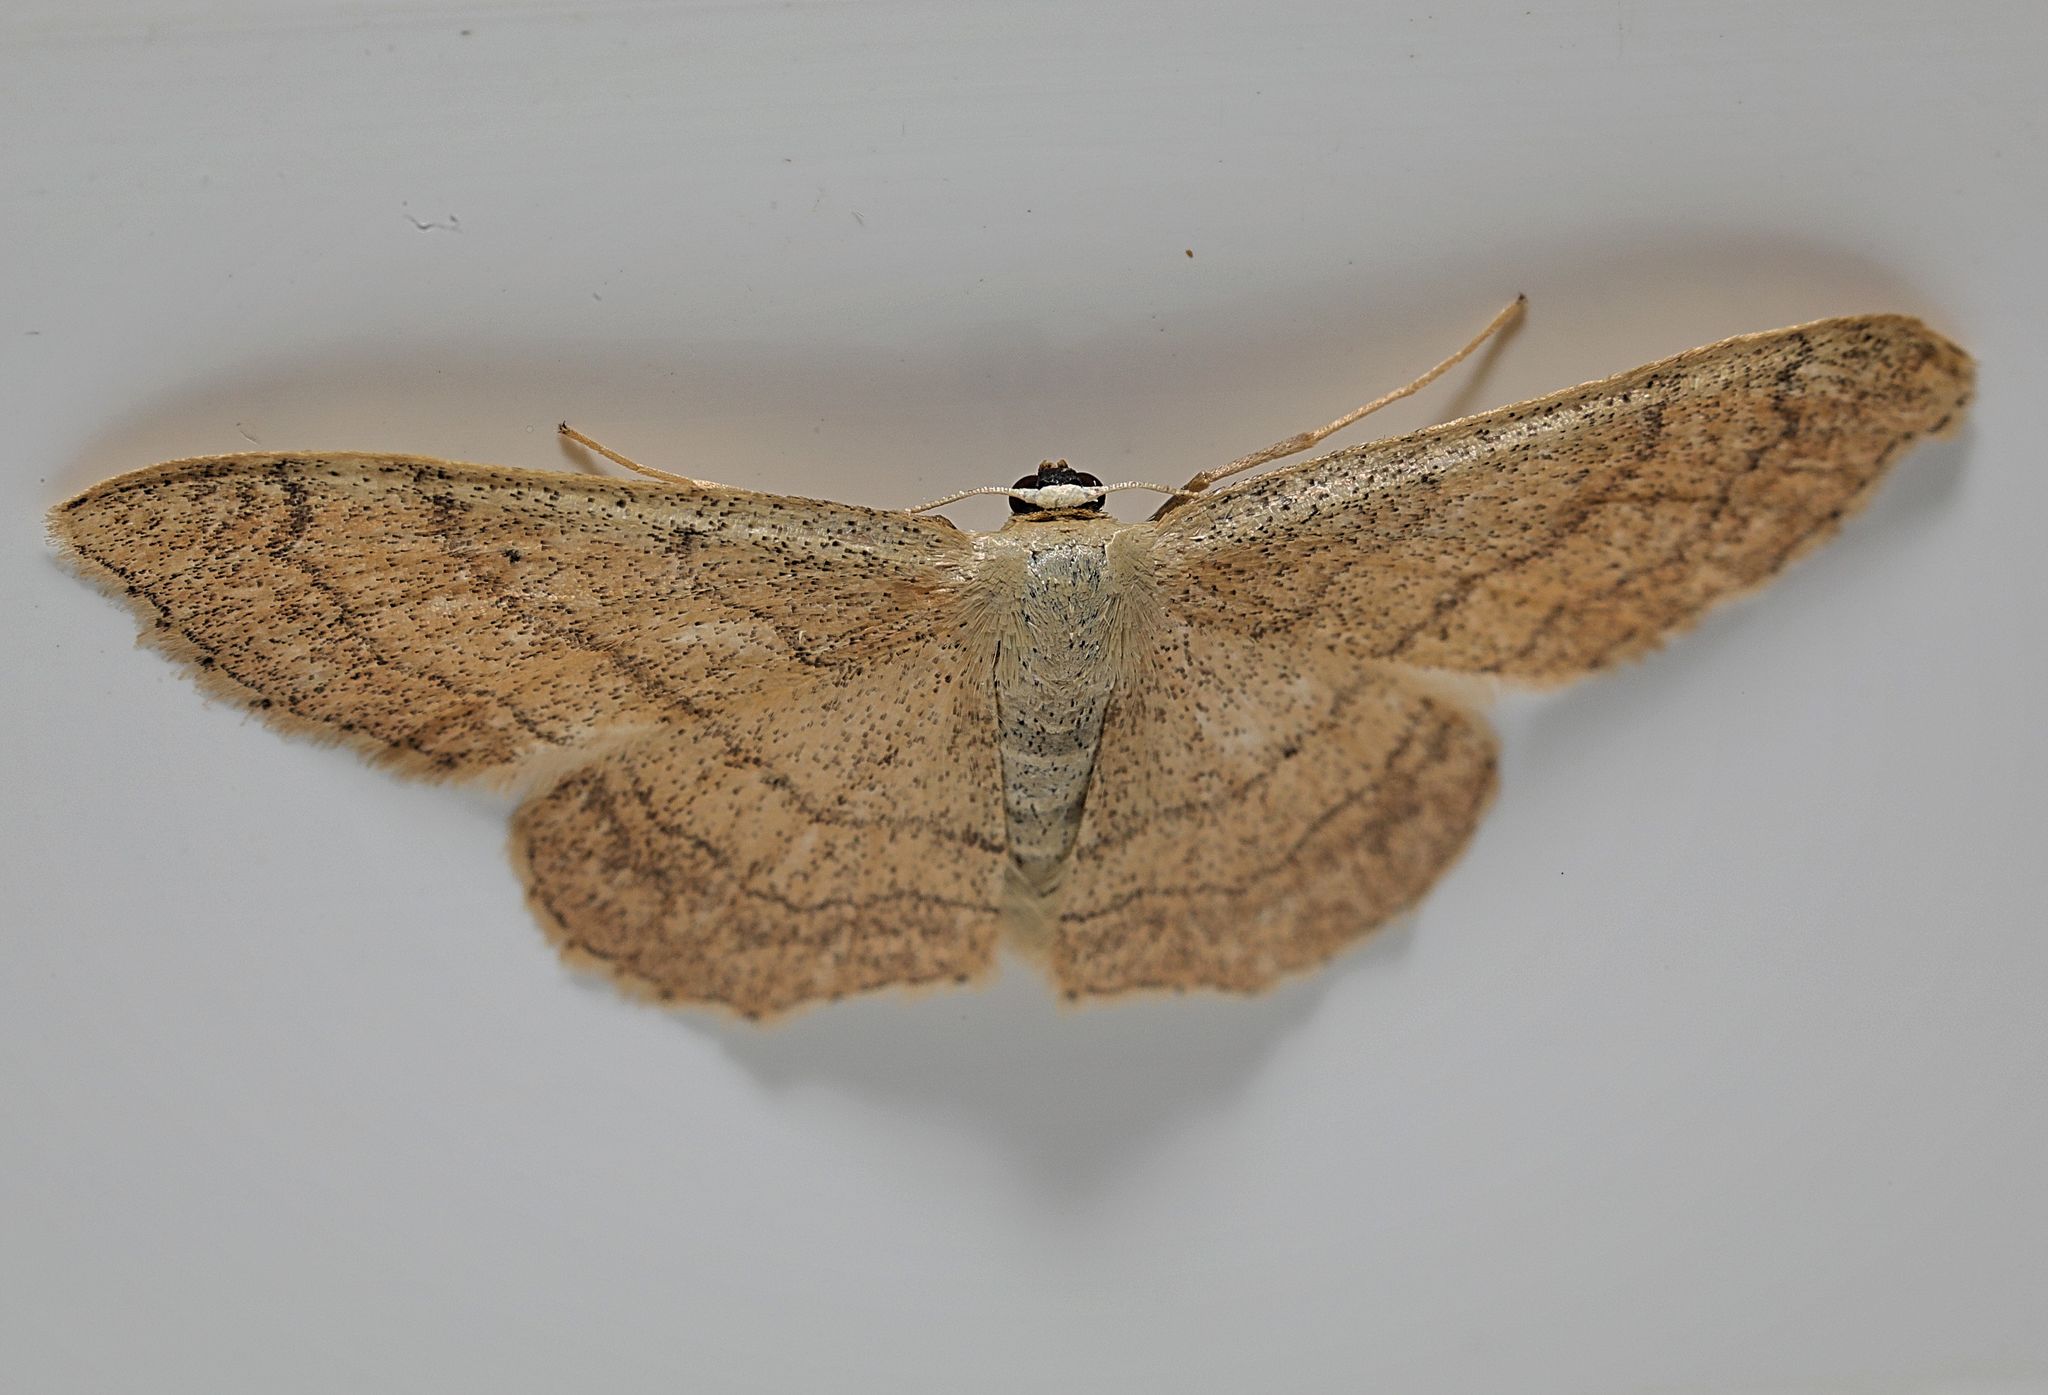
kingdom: Animalia
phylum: Arthropoda
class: Insecta
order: Lepidoptera
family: Geometridae
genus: Idaea
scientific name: Idaea aversata
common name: Riband wave
